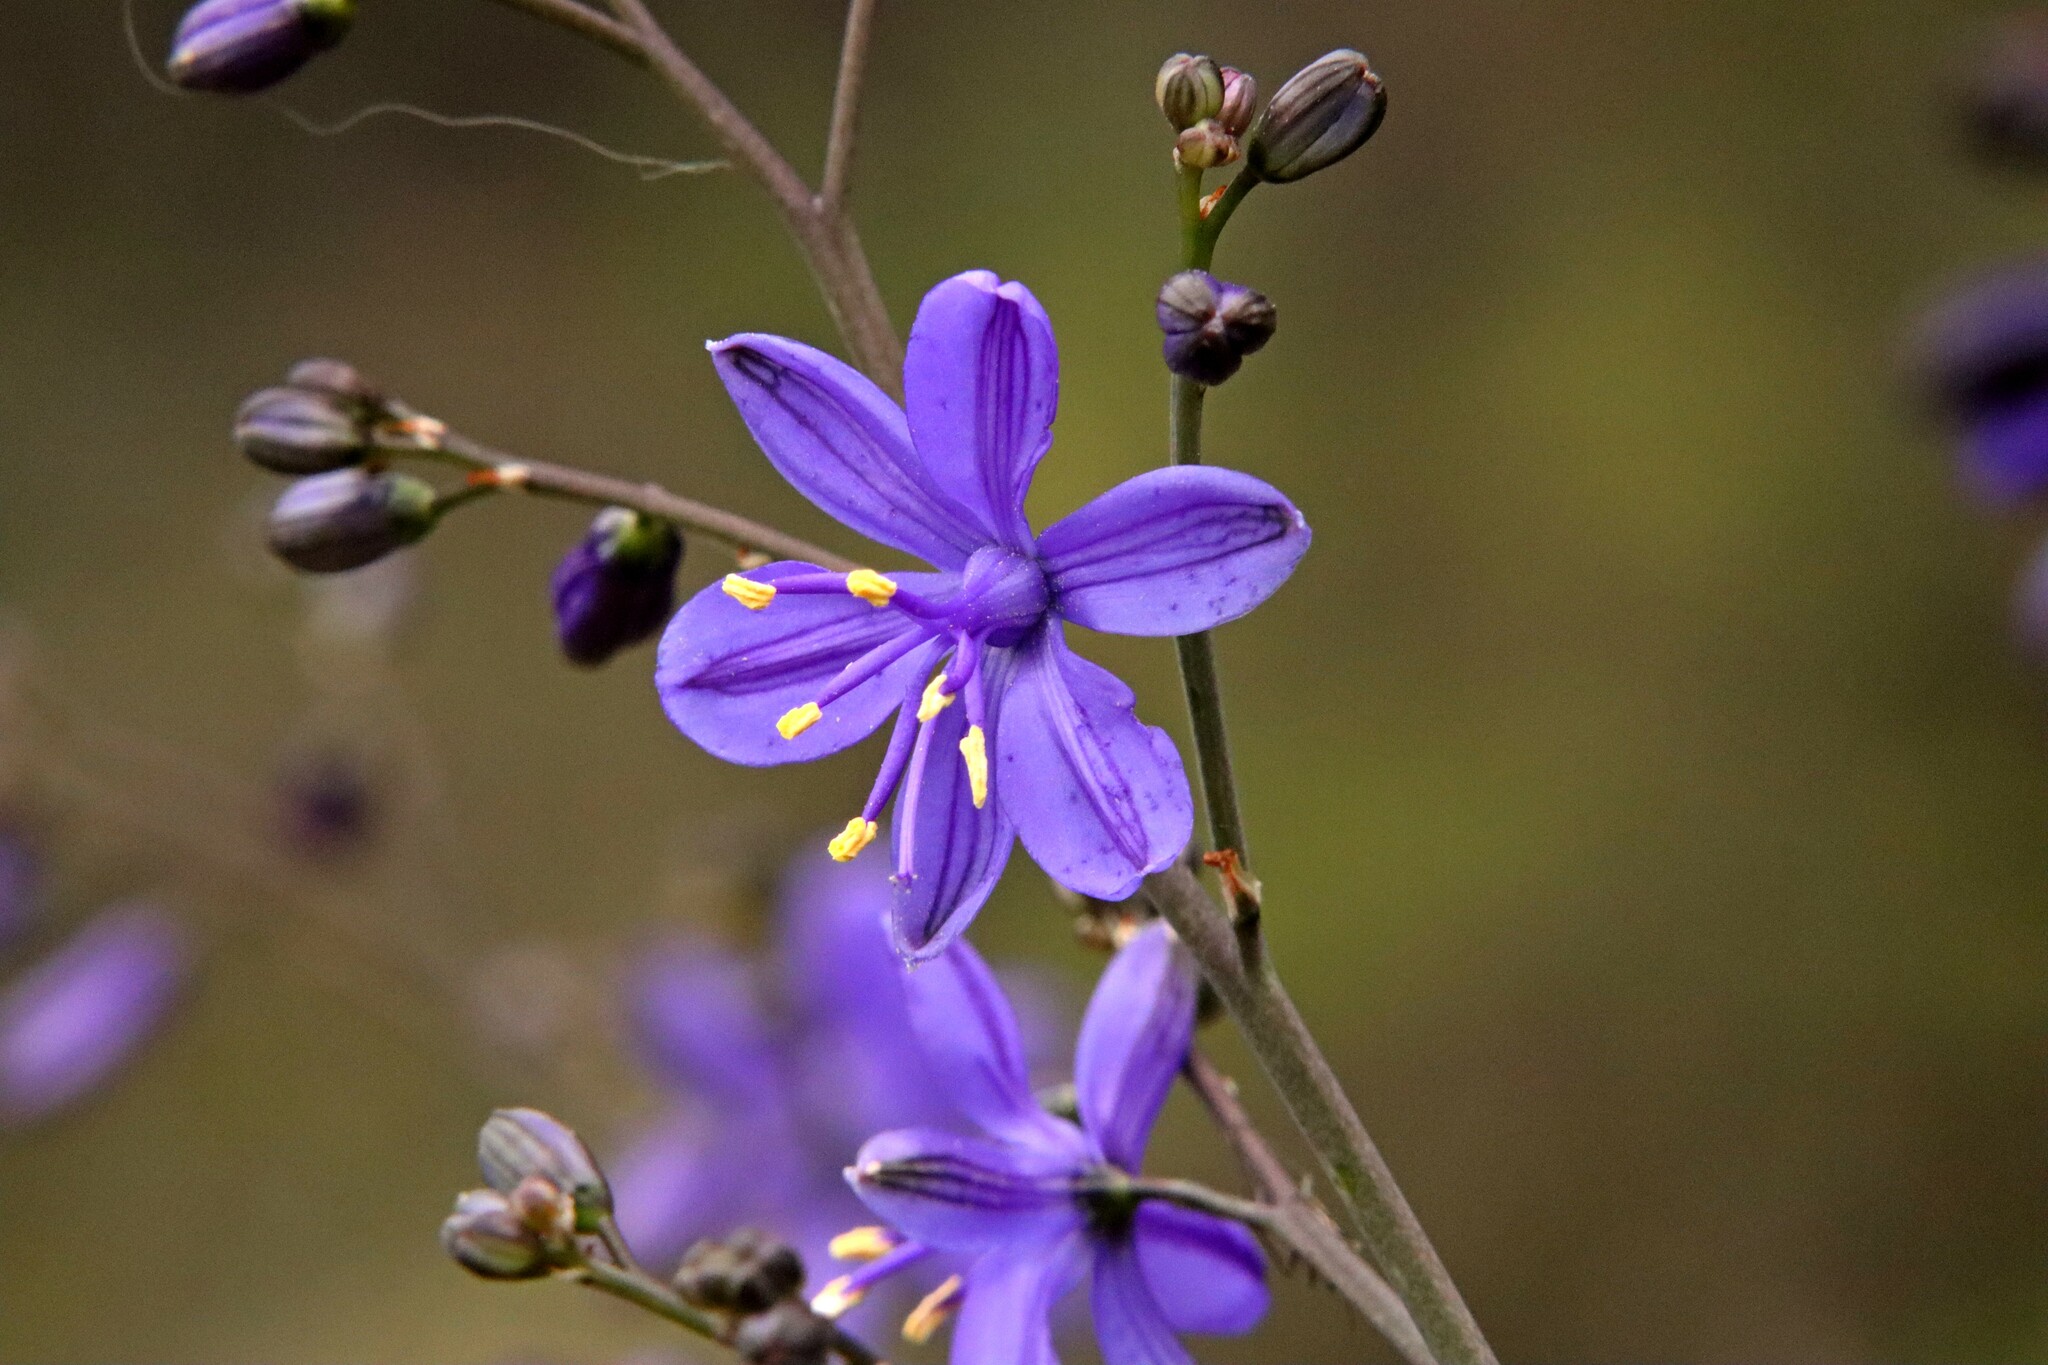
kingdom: Plantae
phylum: Tracheophyta
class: Liliopsida
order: Asparagales
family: Asphodelaceae
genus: Pasithea
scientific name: Pasithea caerulea
